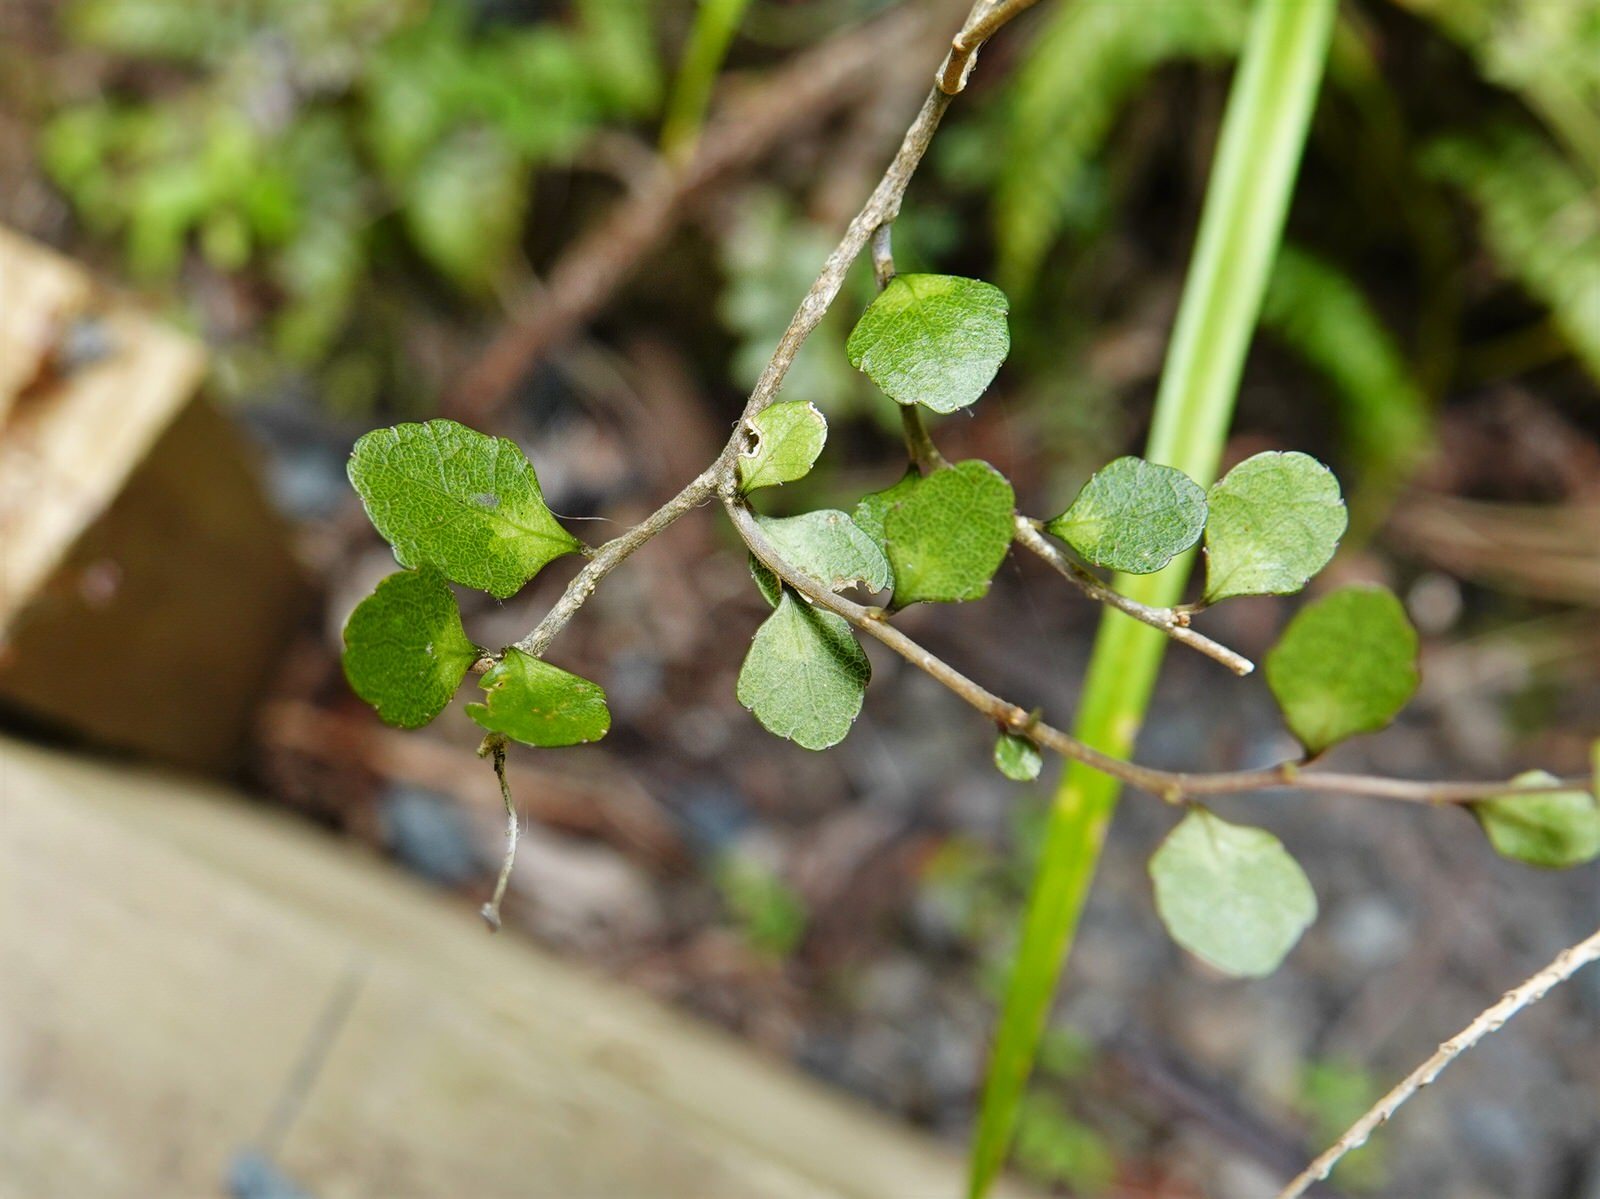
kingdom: Plantae
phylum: Tracheophyta
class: Magnoliopsida
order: Malpighiales
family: Violaceae
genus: Melicytus
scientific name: Melicytus micranthus
